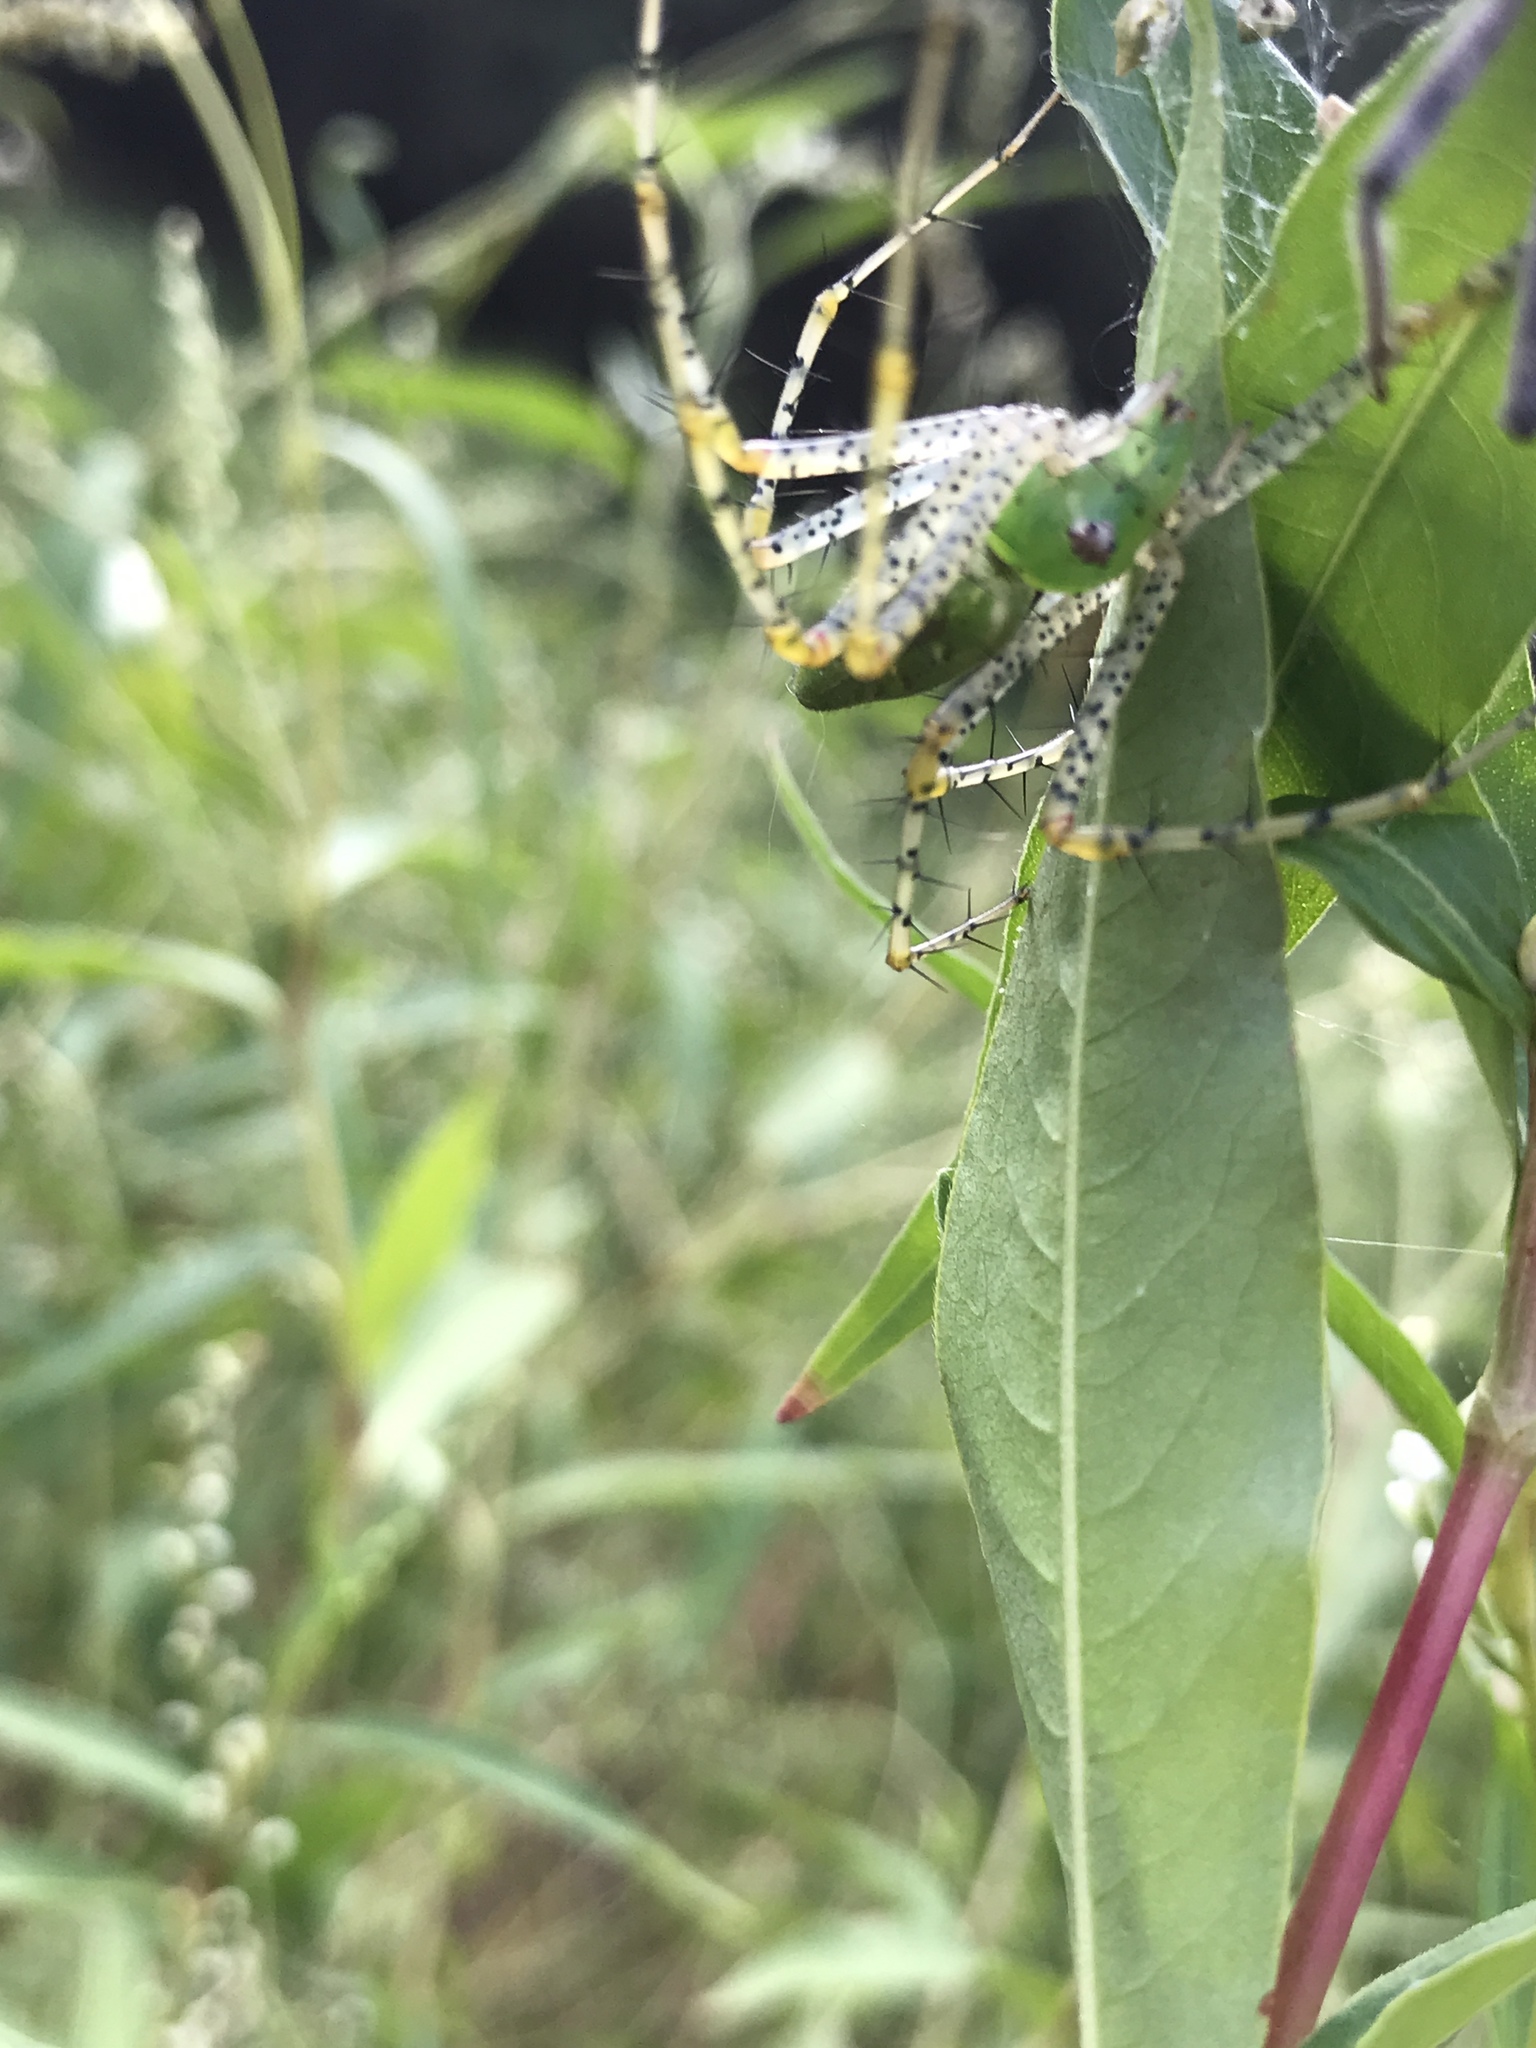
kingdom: Animalia
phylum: Arthropoda
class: Arachnida
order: Araneae
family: Oxyopidae
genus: Peucetia
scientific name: Peucetia viridans
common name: Lynx spiders
